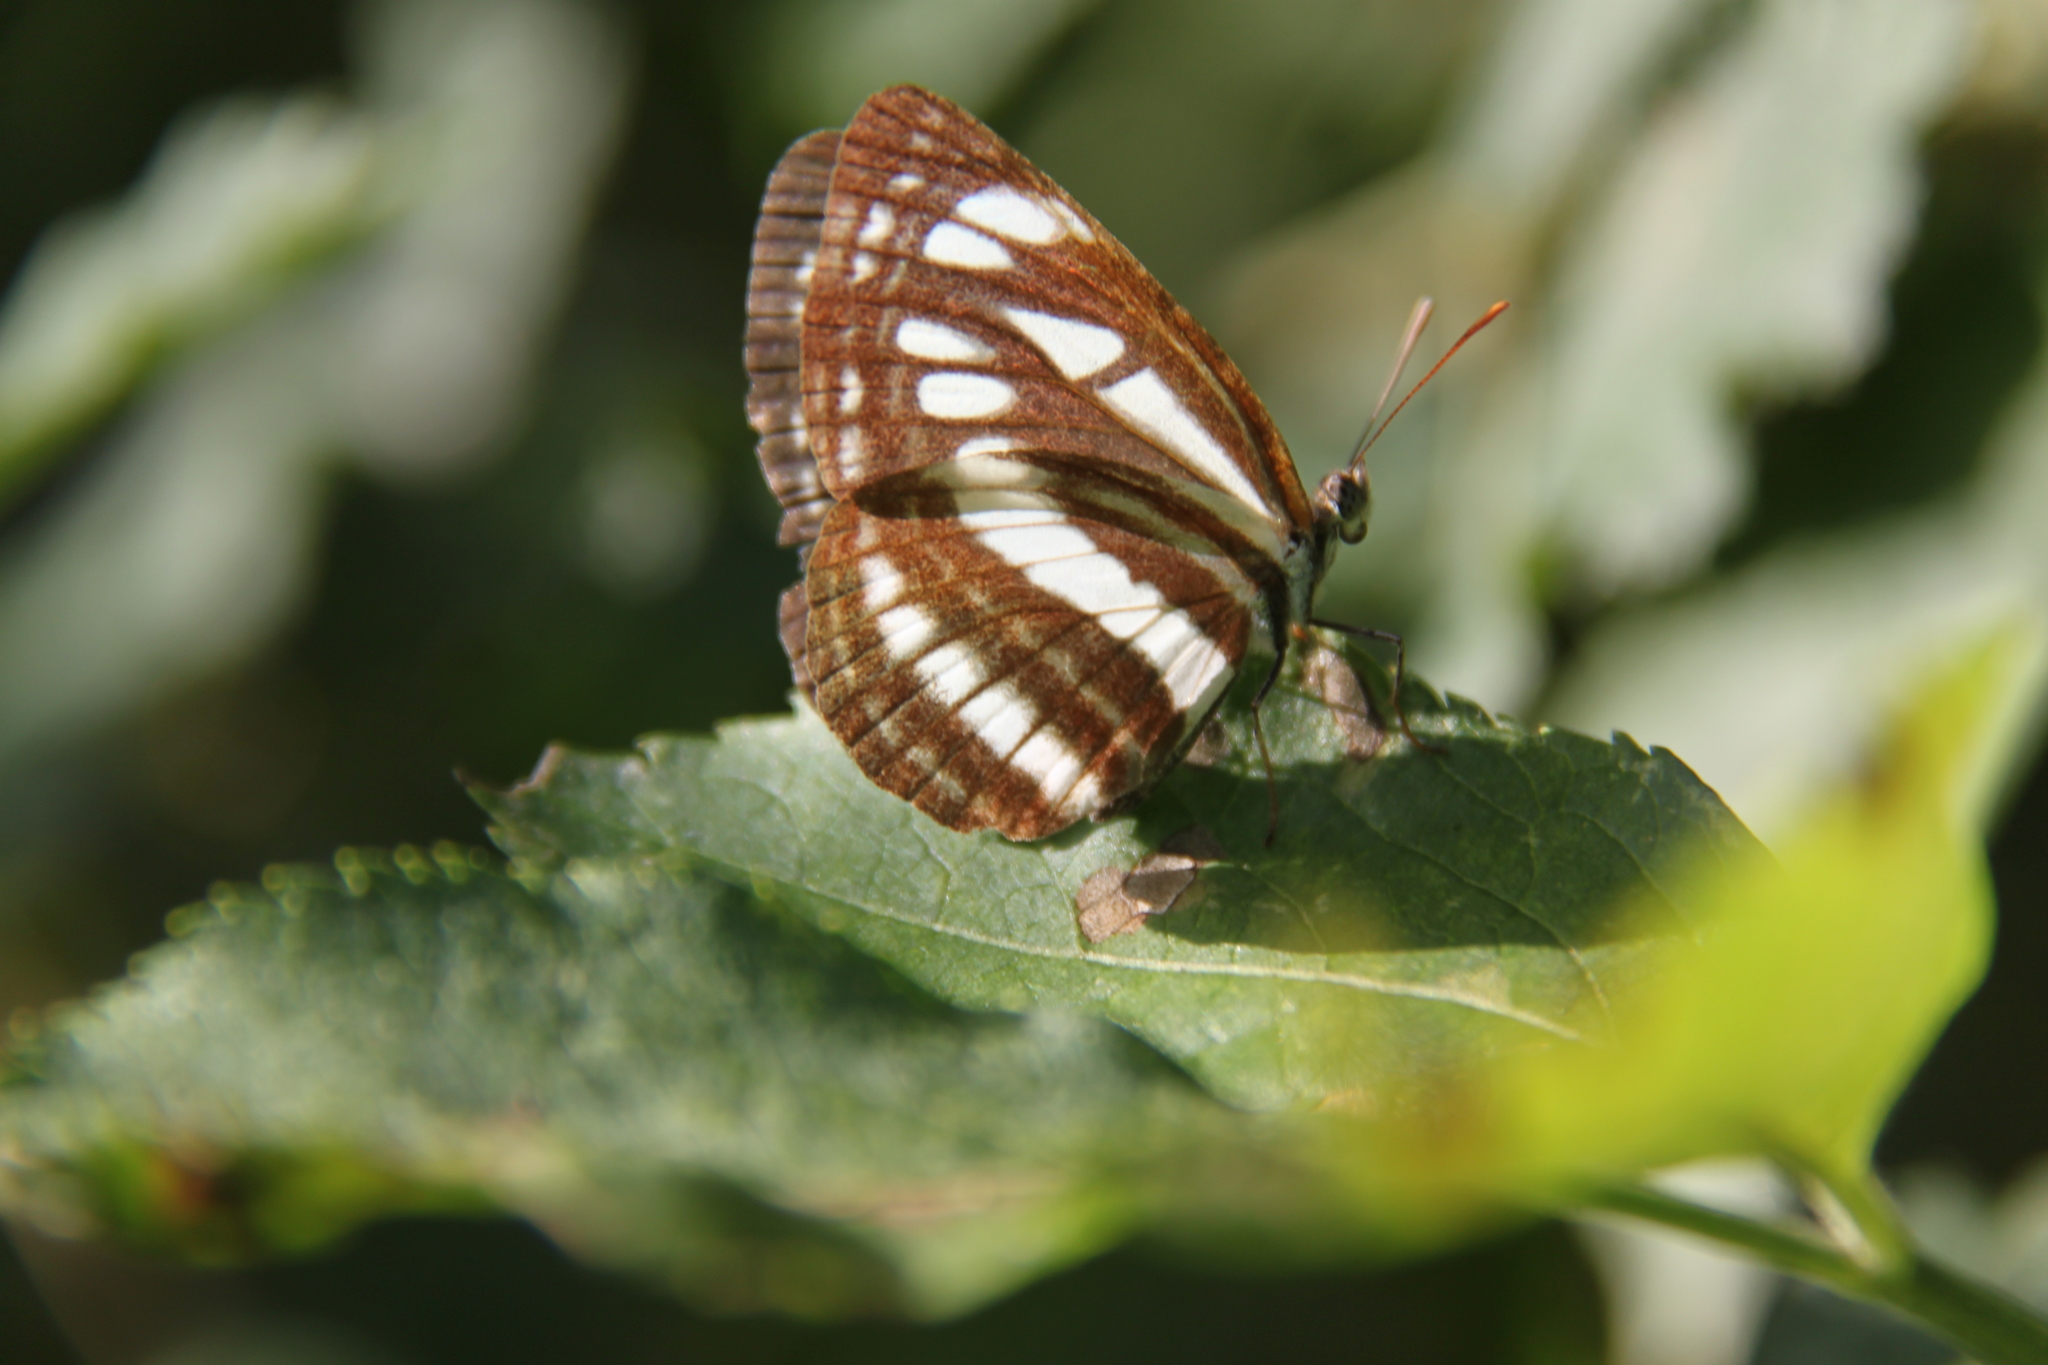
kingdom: Animalia
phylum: Arthropoda
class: Insecta
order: Lepidoptera
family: Nymphalidae
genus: Neptis
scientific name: Neptis sappho
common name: Common glider
